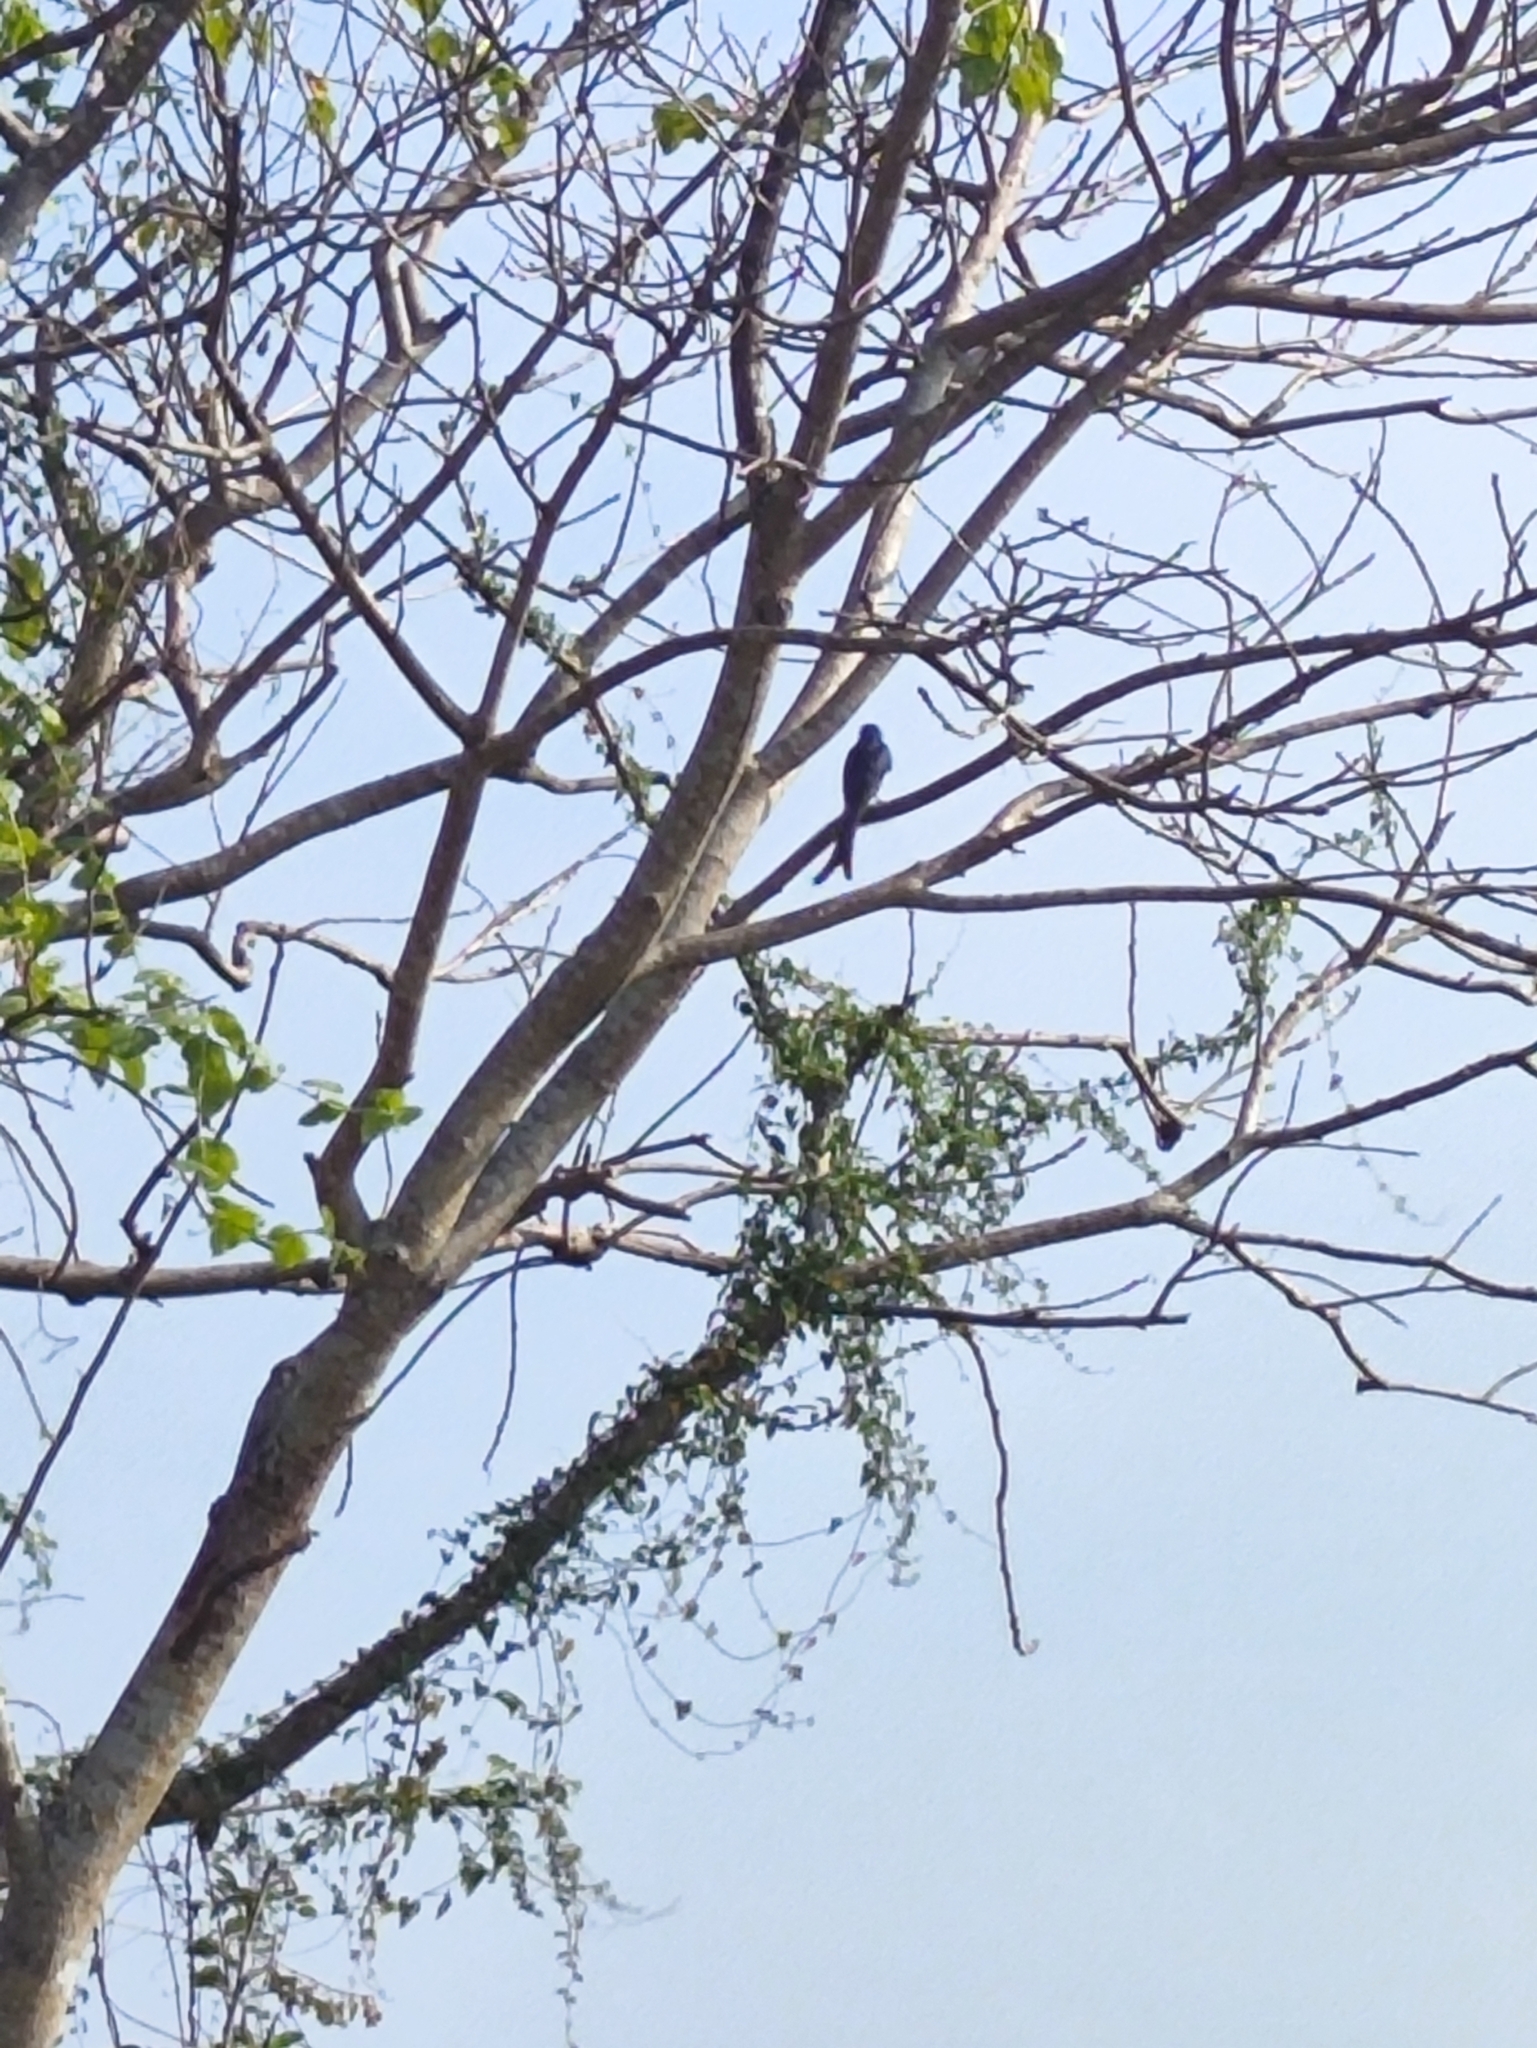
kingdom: Animalia
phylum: Chordata
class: Aves
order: Passeriformes
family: Dicruridae
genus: Dicrurus
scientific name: Dicrurus macrocercus
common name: Black drongo
